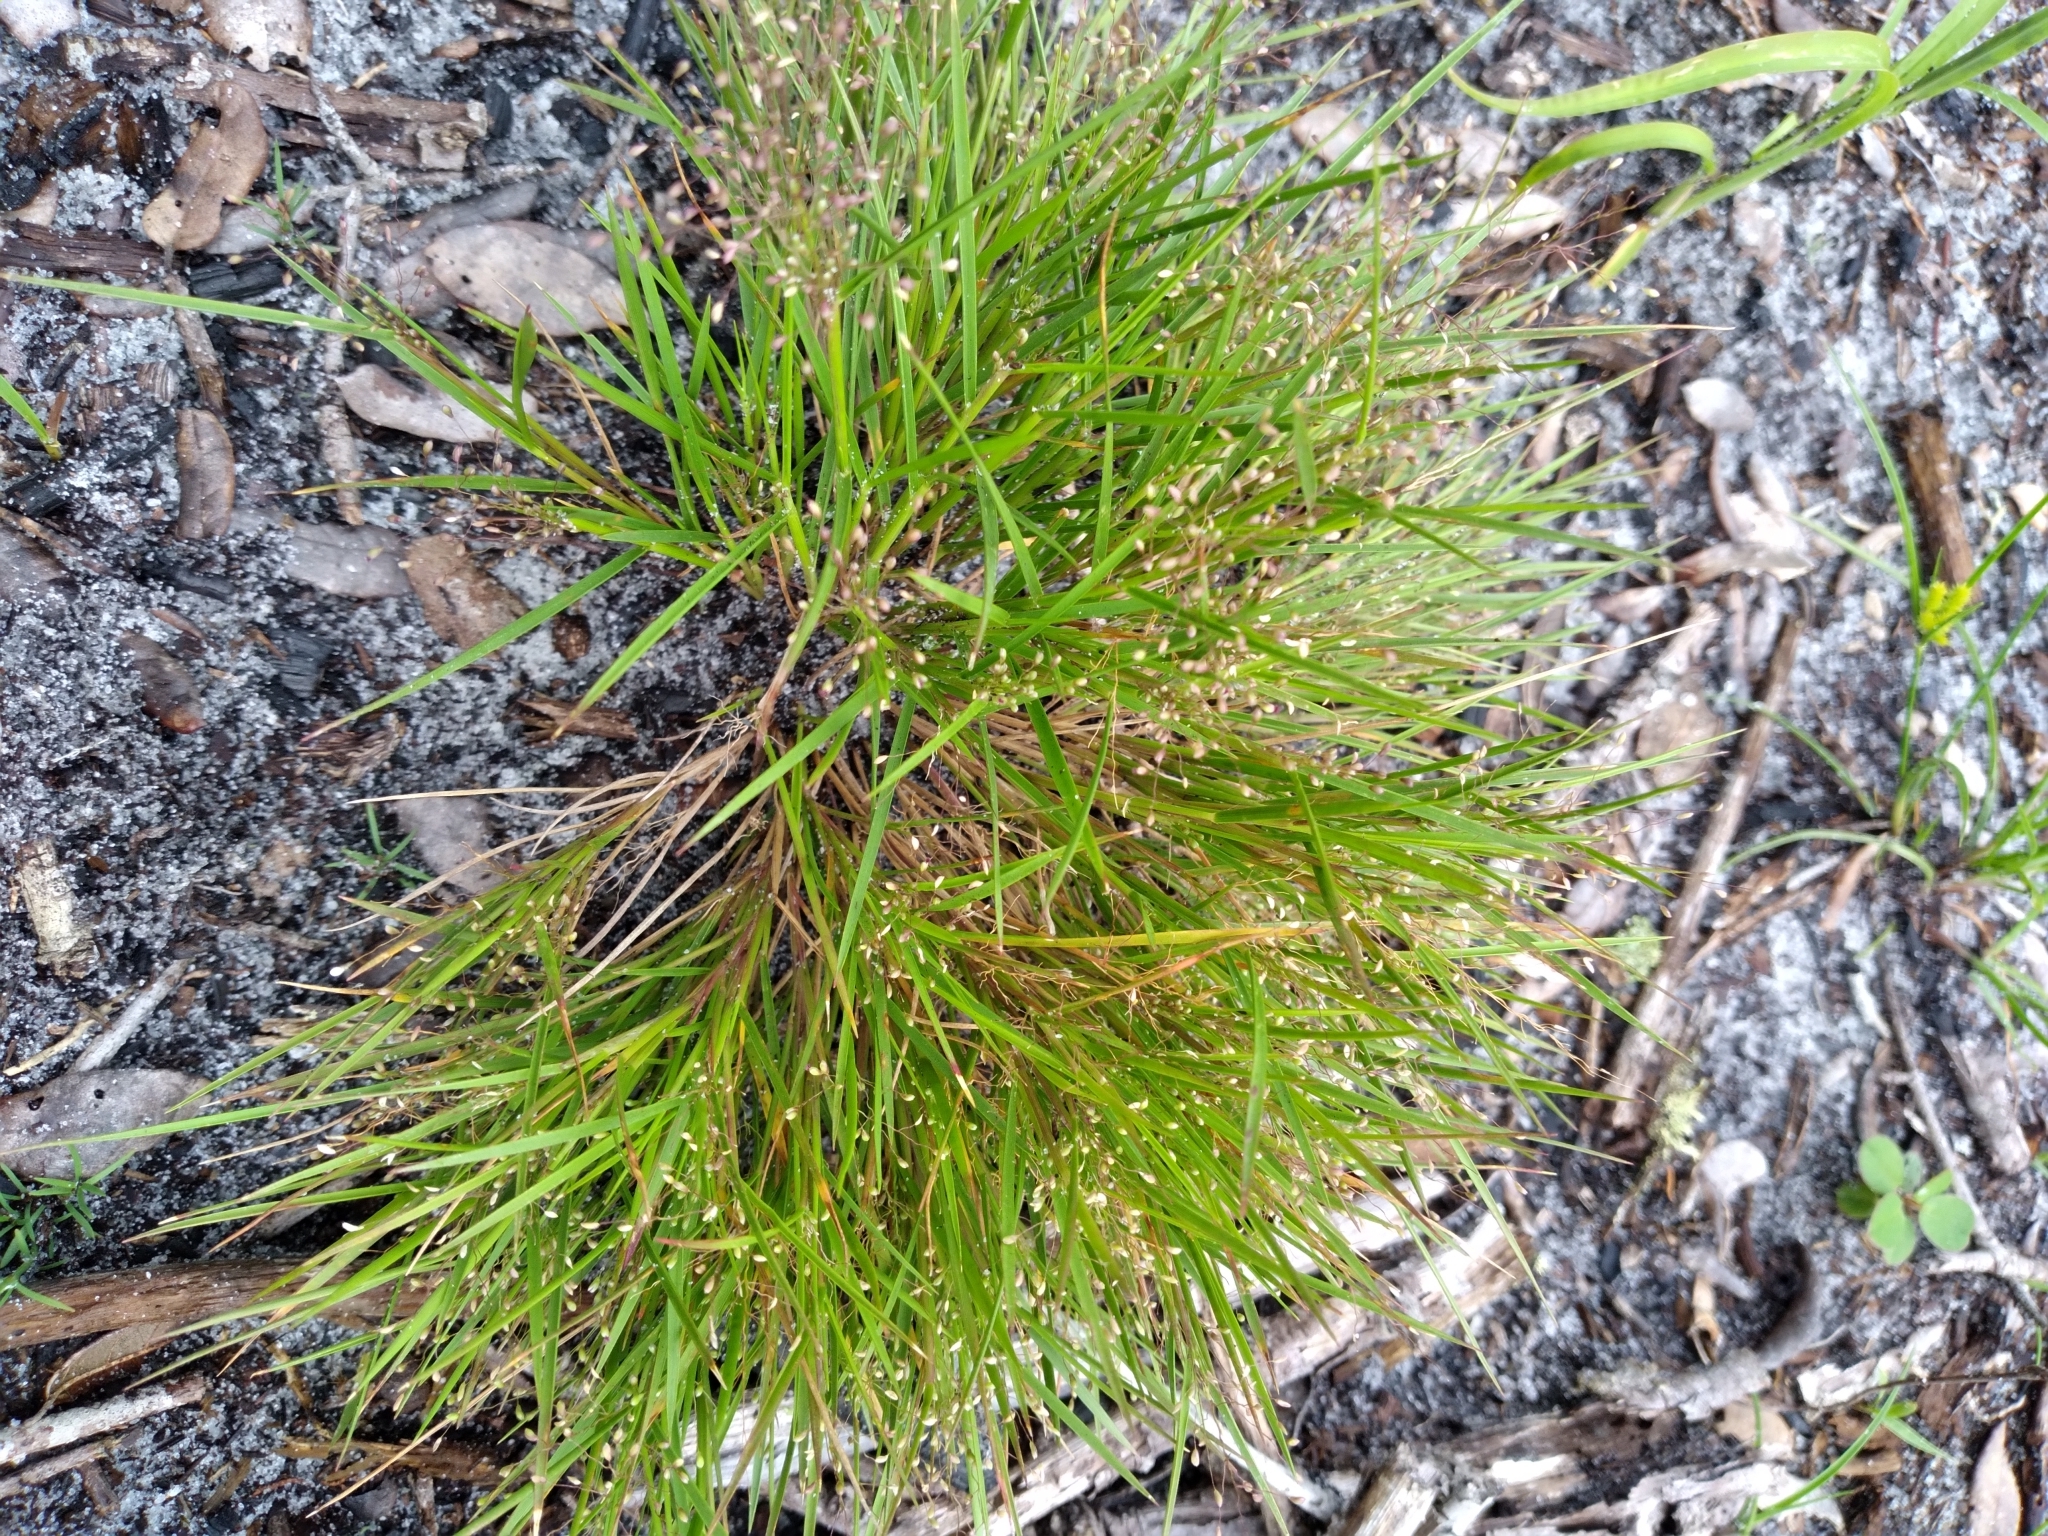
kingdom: Plantae
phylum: Tracheophyta
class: Liliopsida
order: Poales
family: Poaceae
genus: Dichanthelium
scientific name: Dichanthelium breve
